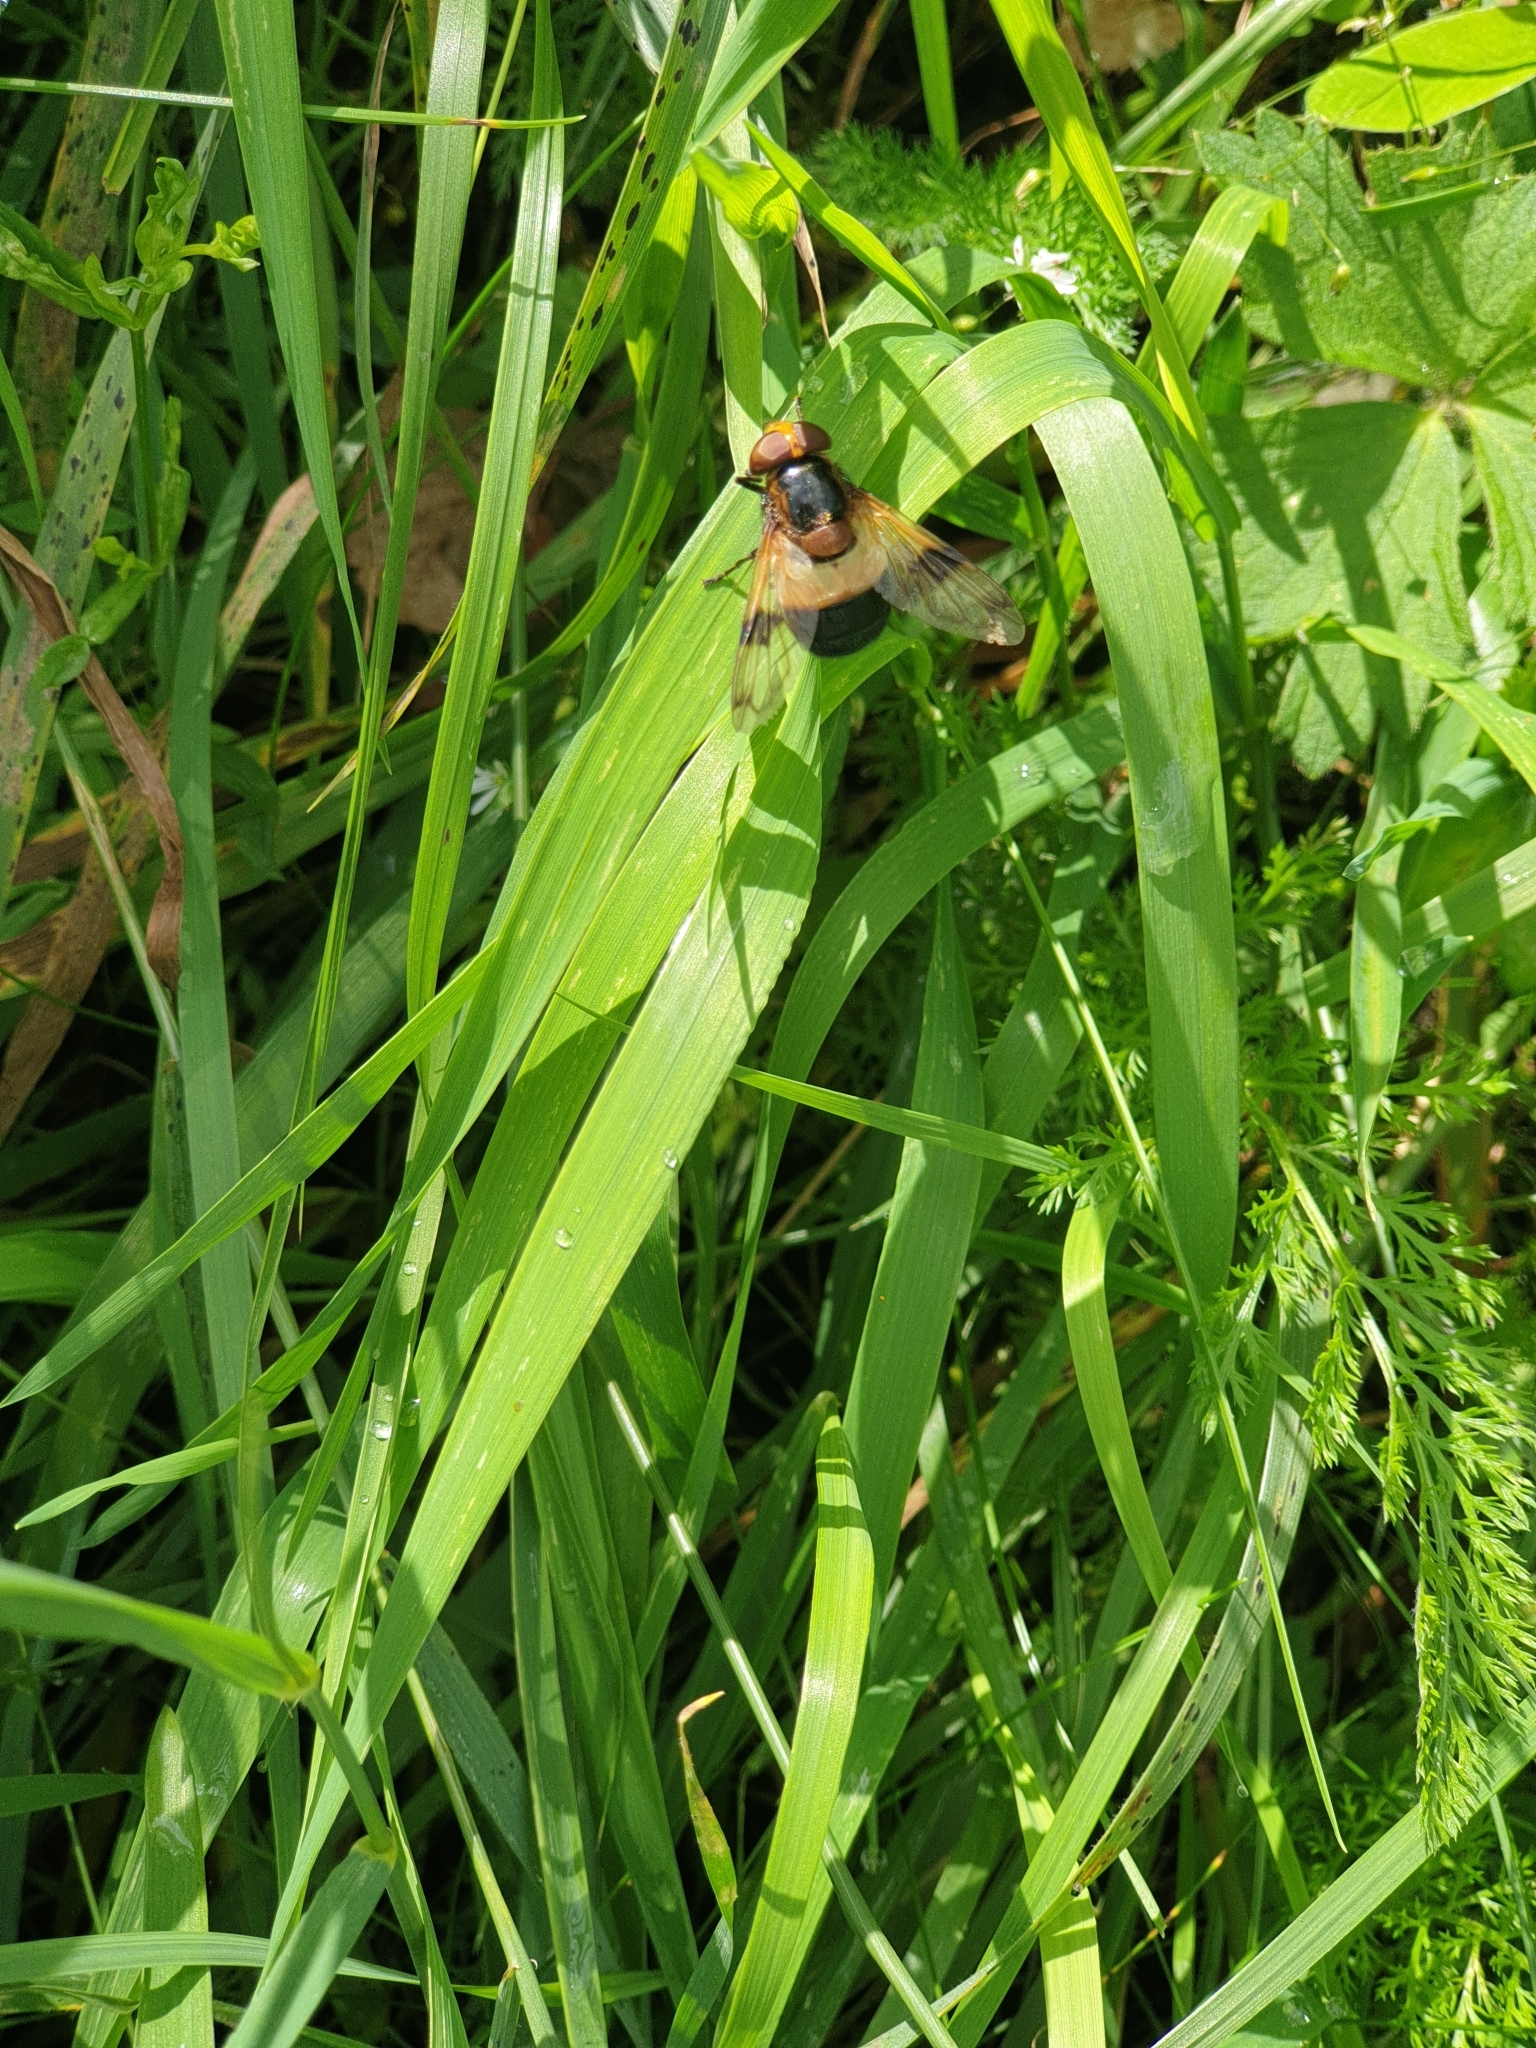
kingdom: Animalia
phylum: Arthropoda
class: Insecta
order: Diptera
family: Syrphidae
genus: Volucella
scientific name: Volucella pellucens
